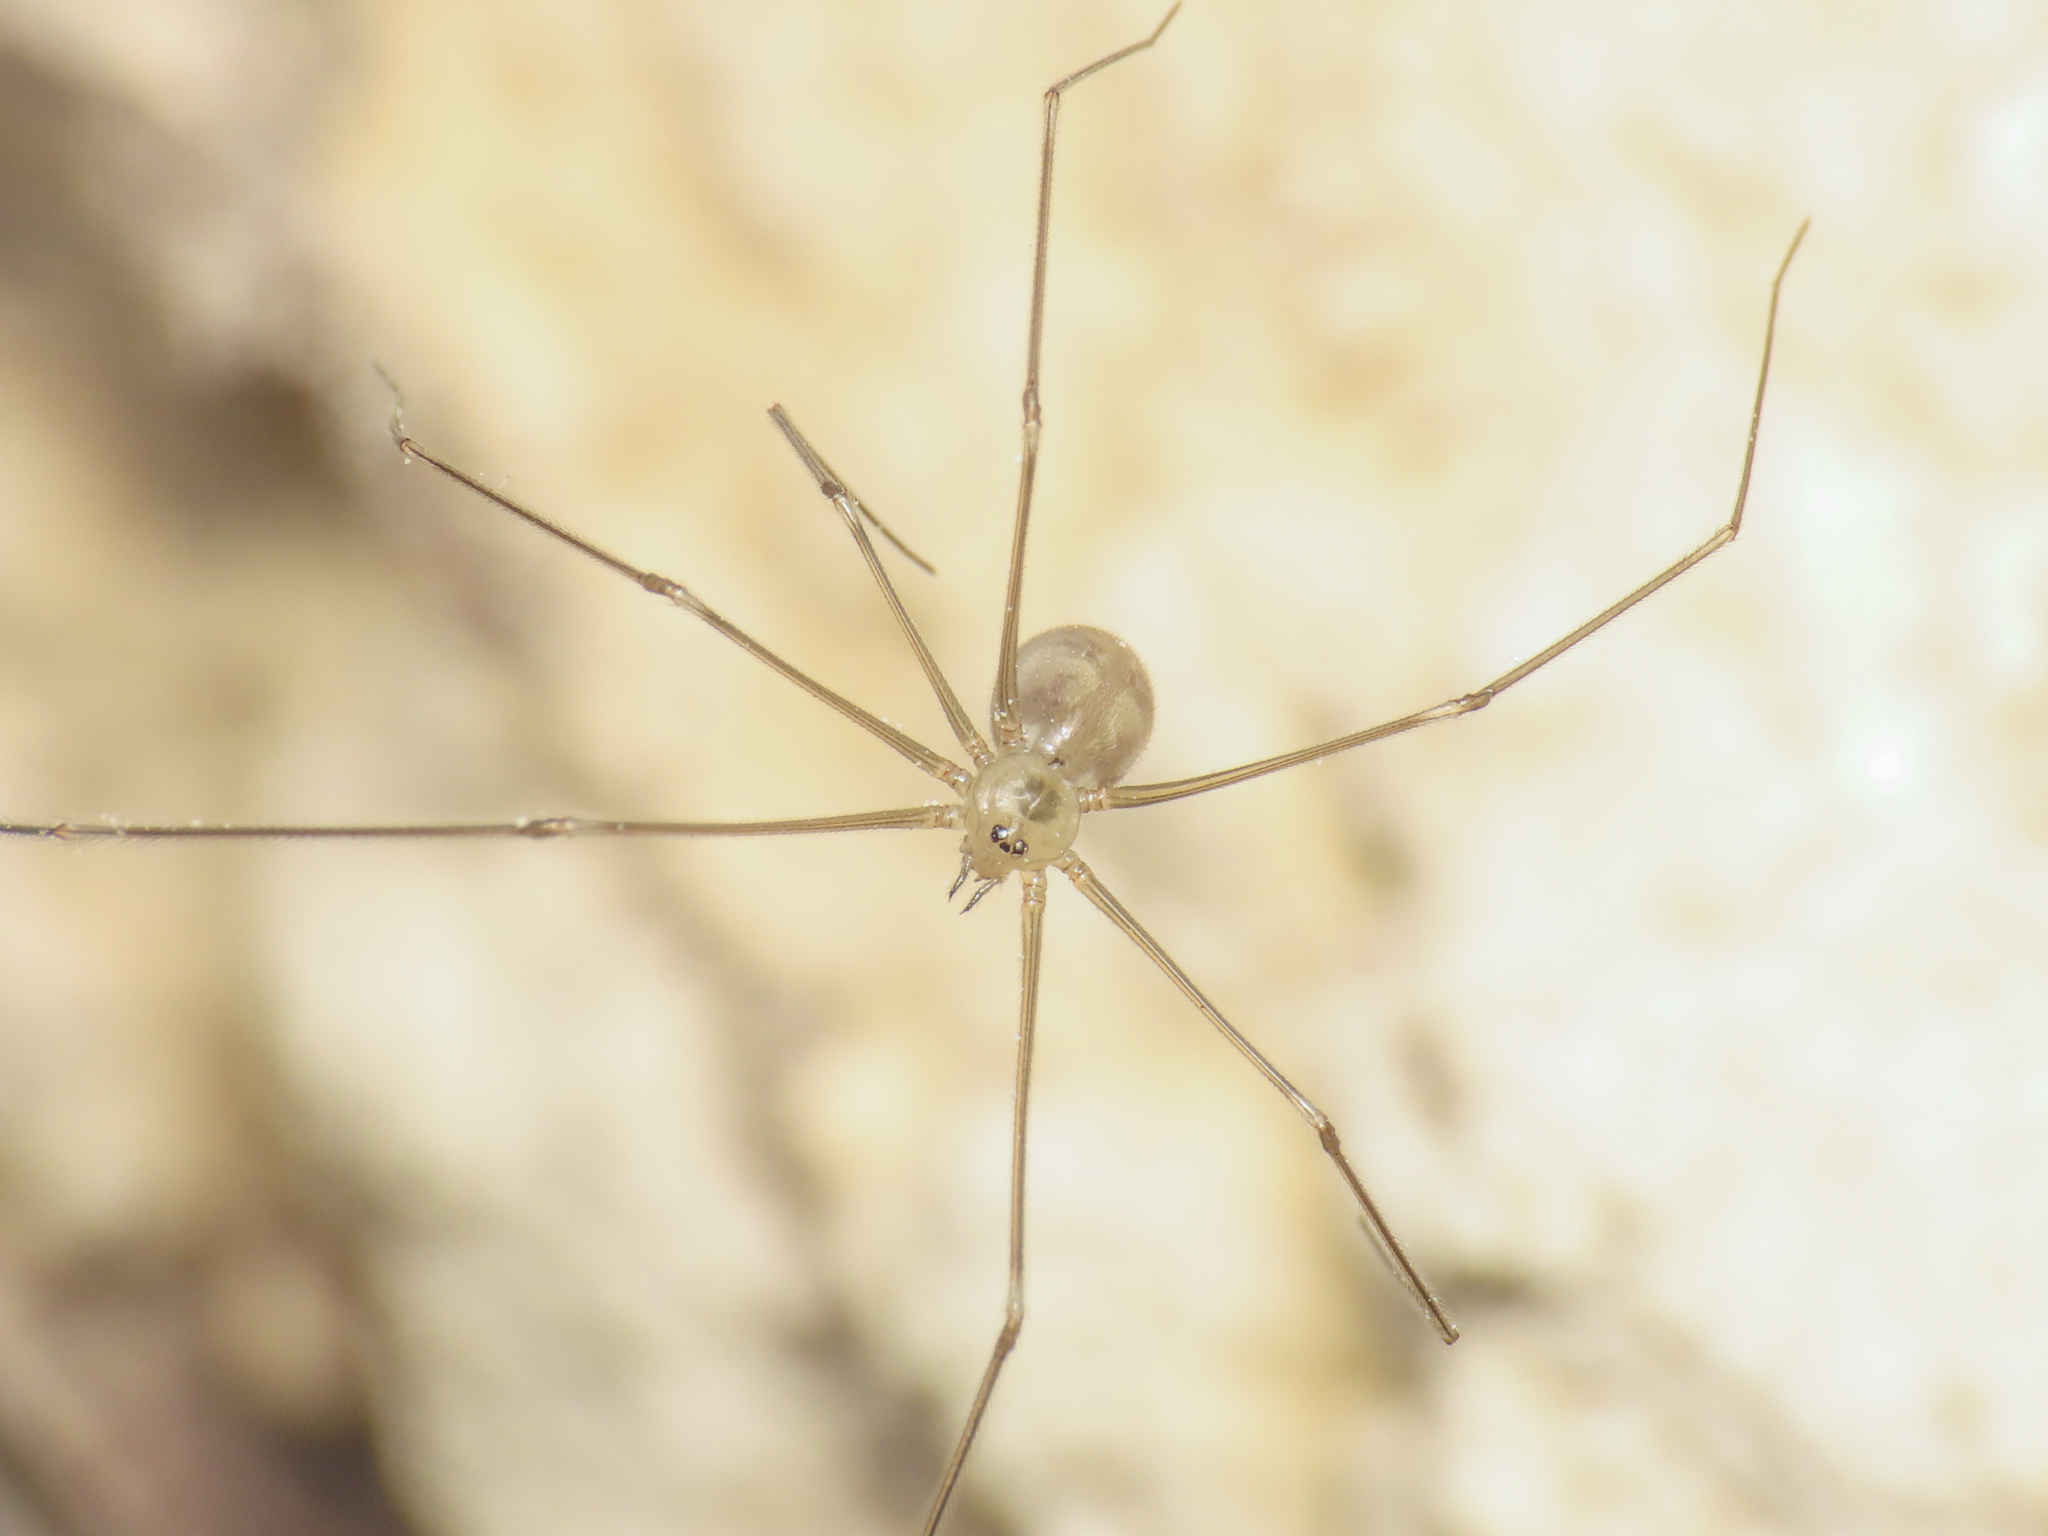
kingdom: Animalia
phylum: Arthropoda
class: Arachnida
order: Araneae
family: Pholcidae
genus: Pholcus
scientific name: Pholcus phalangioides
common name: Longbodied cellar spider
